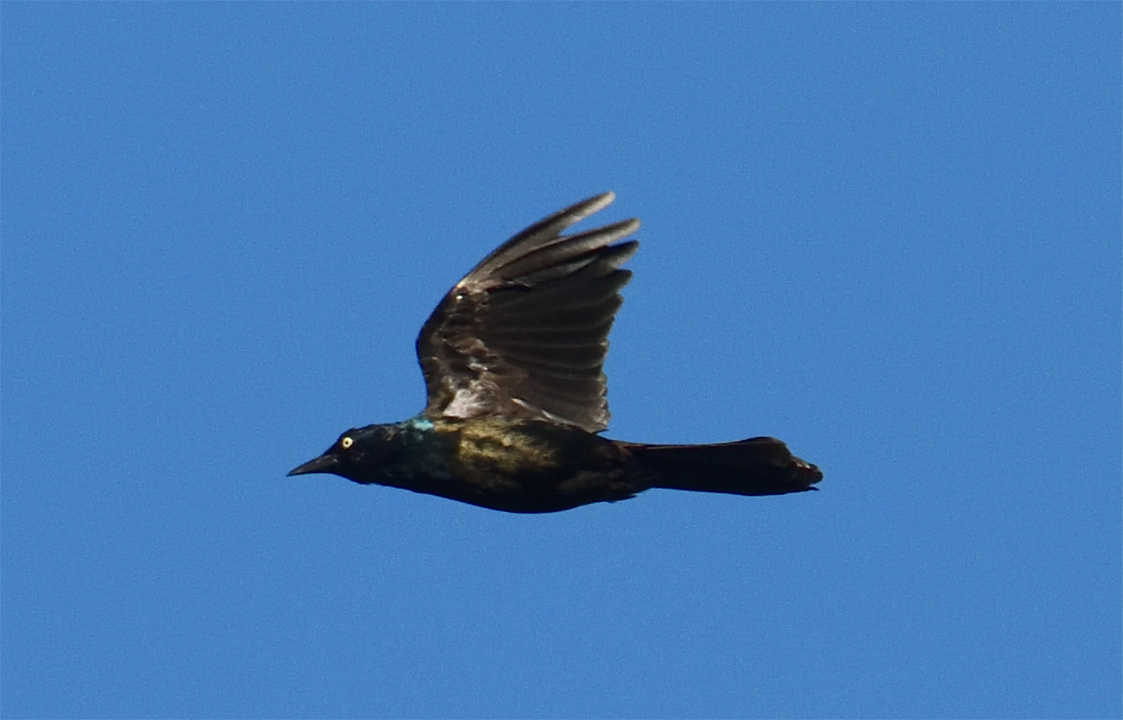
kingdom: Animalia
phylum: Chordata
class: Aves
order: Passeriformes
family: Icteridae
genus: Quiscalus
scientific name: Quiscalus quiscula
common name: Common grackle
